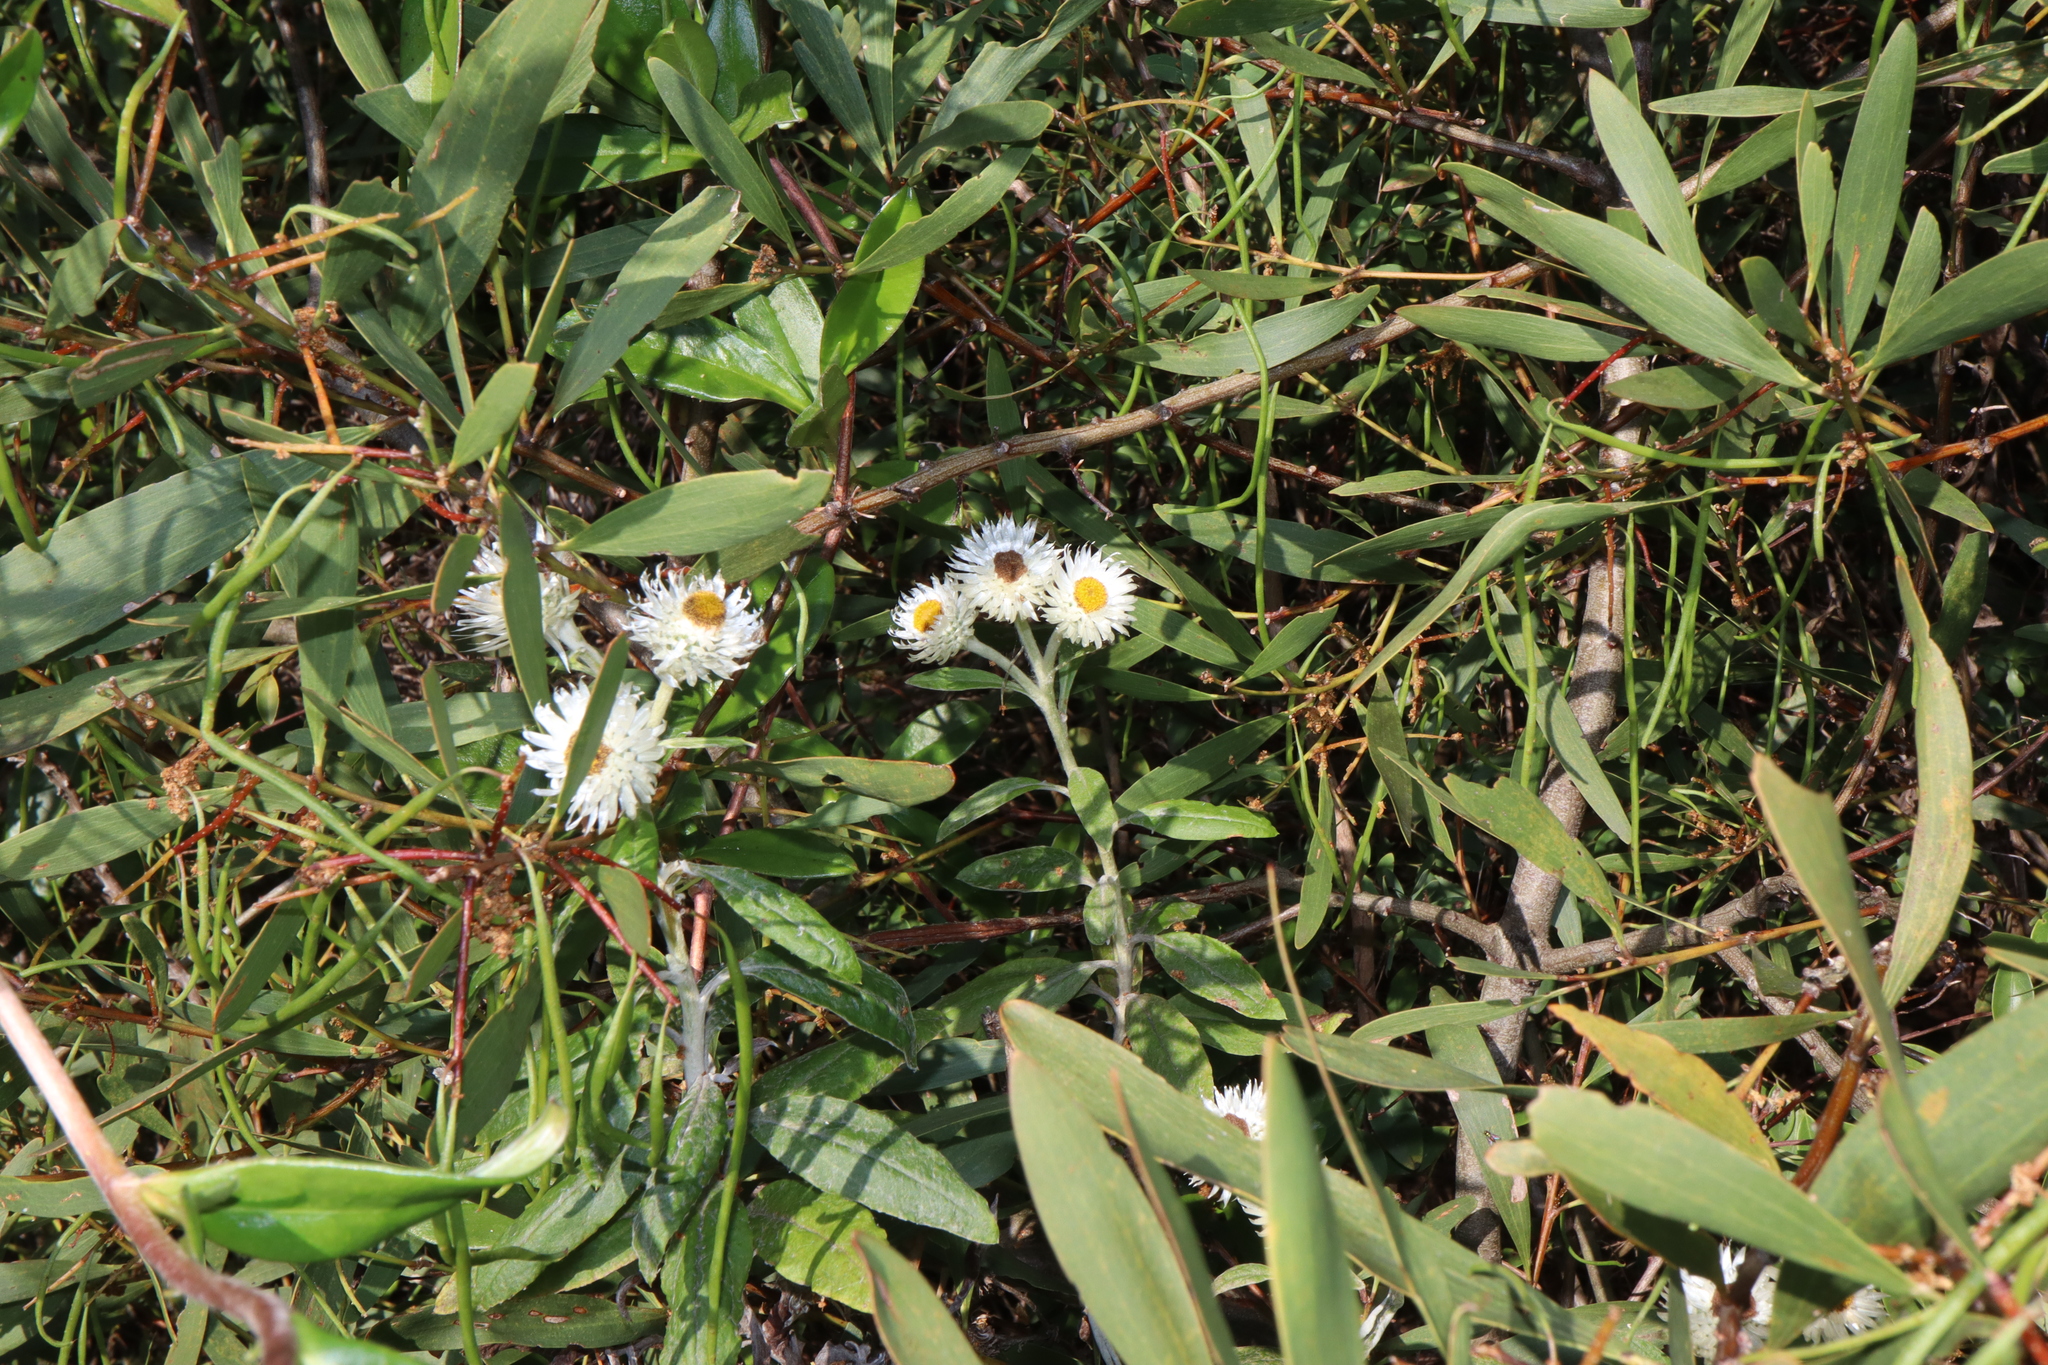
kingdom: Plantae
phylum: Tracheophyta
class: Magnoliopsida
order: Asterales
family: Asteraceae
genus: Leucozoma
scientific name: Leucozoma elatum
